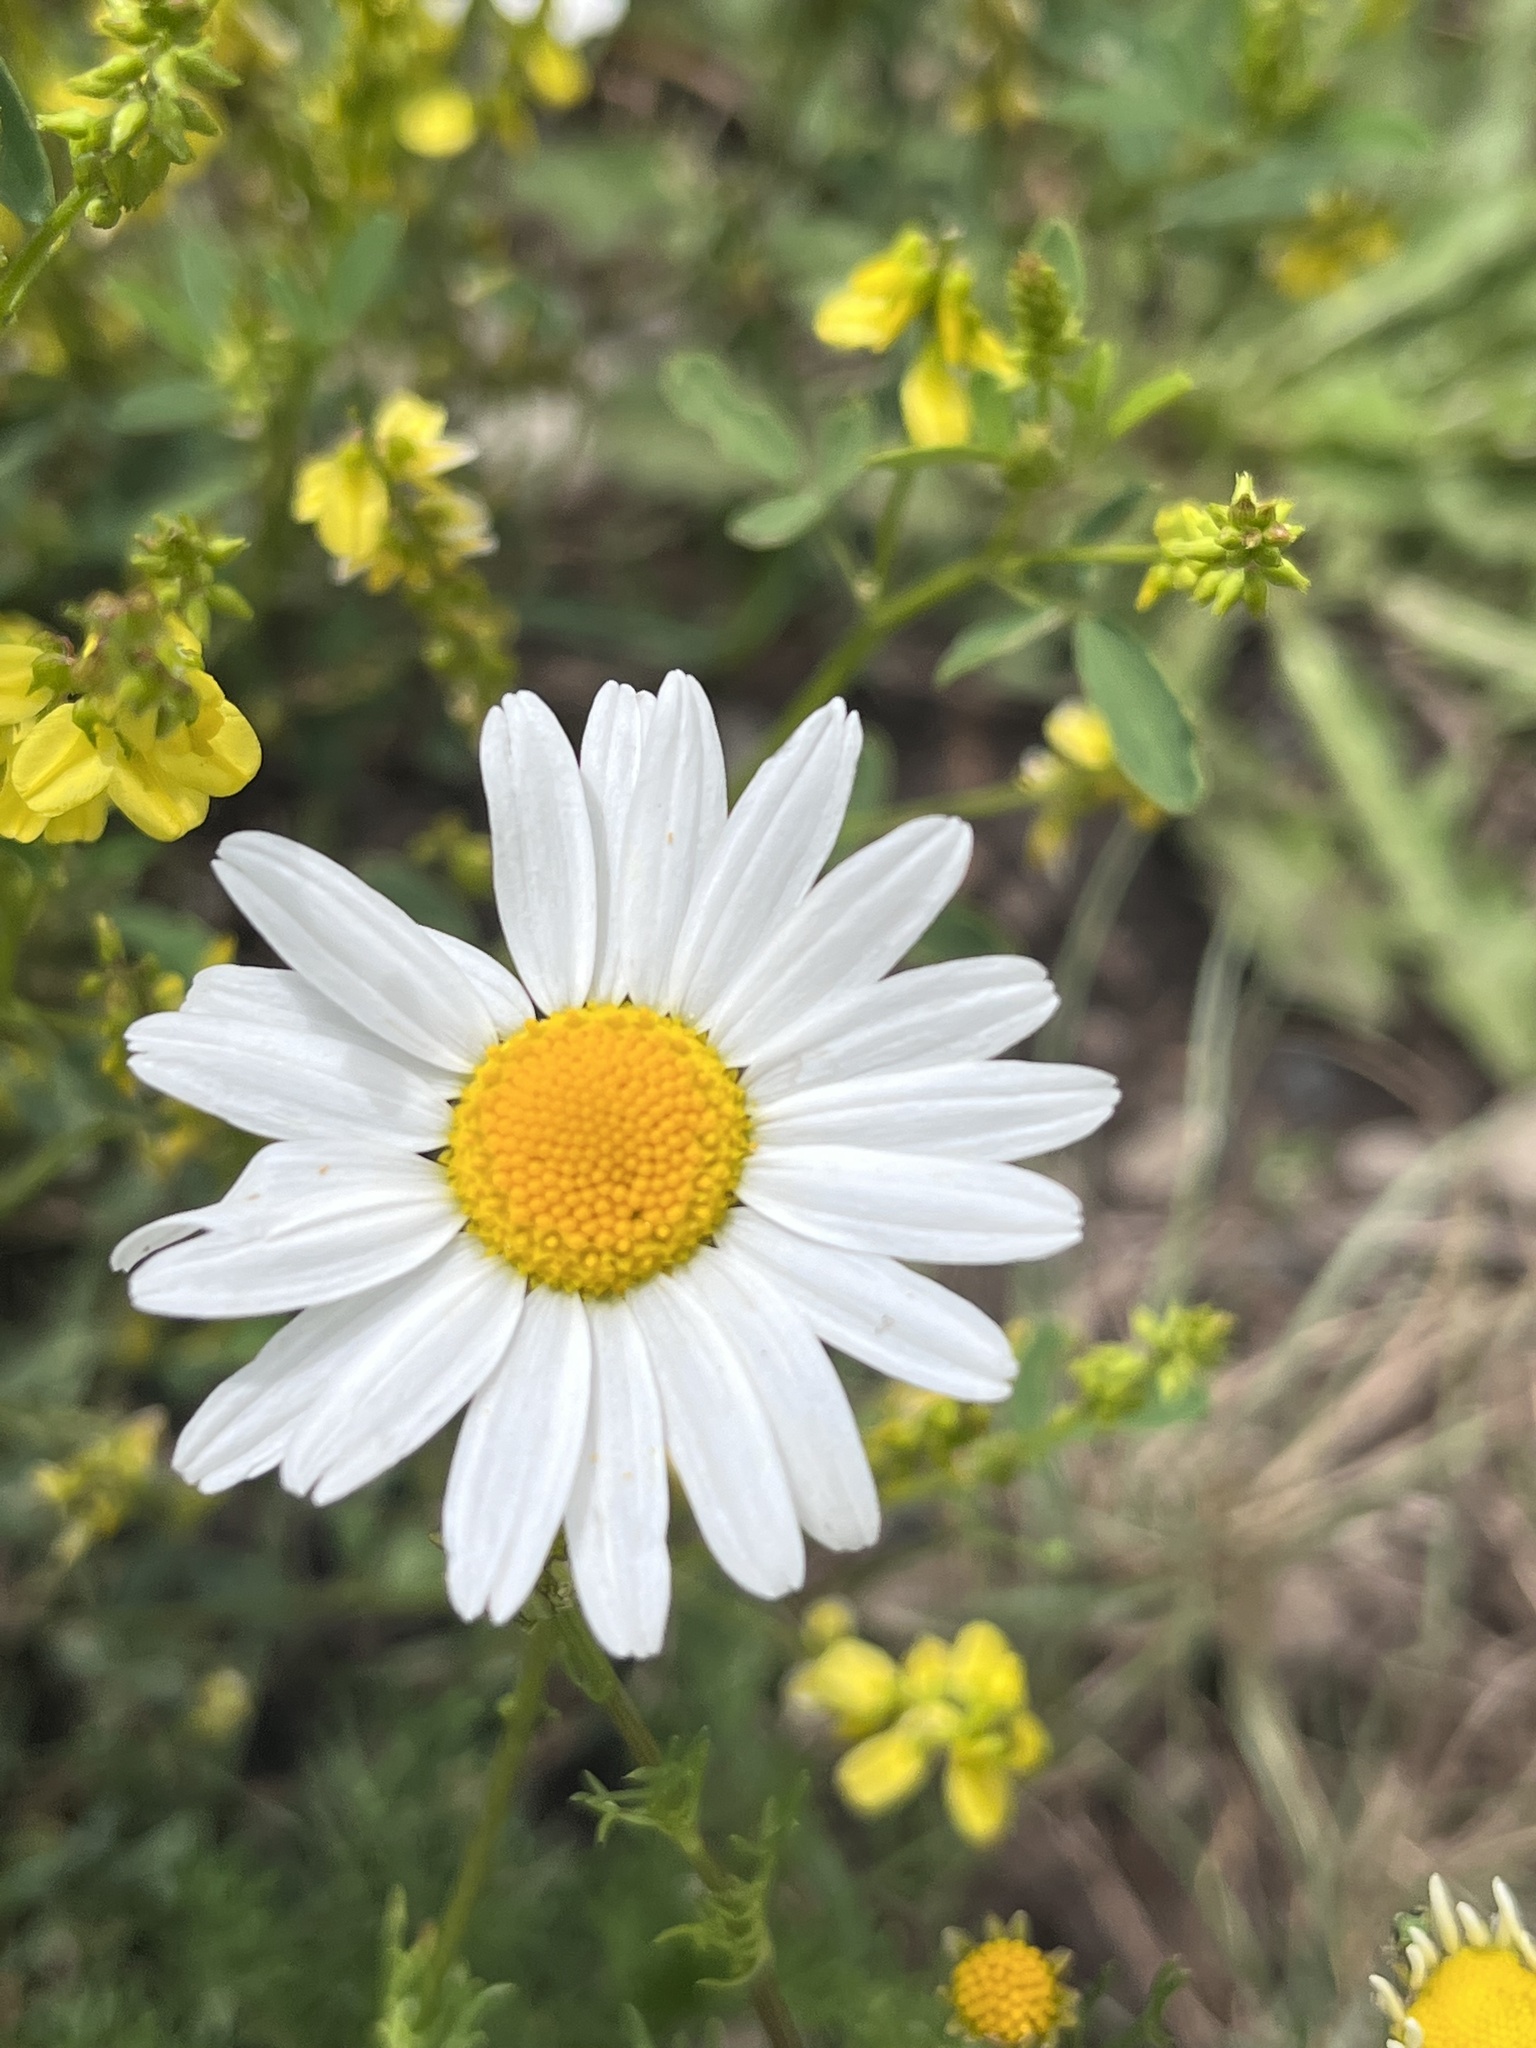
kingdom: Plantae
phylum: Tracheophyta
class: Magnoliopsida
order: Asterales
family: Asteraceae
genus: Anthemis
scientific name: Anthemis cotula
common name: Stinking chamomile
